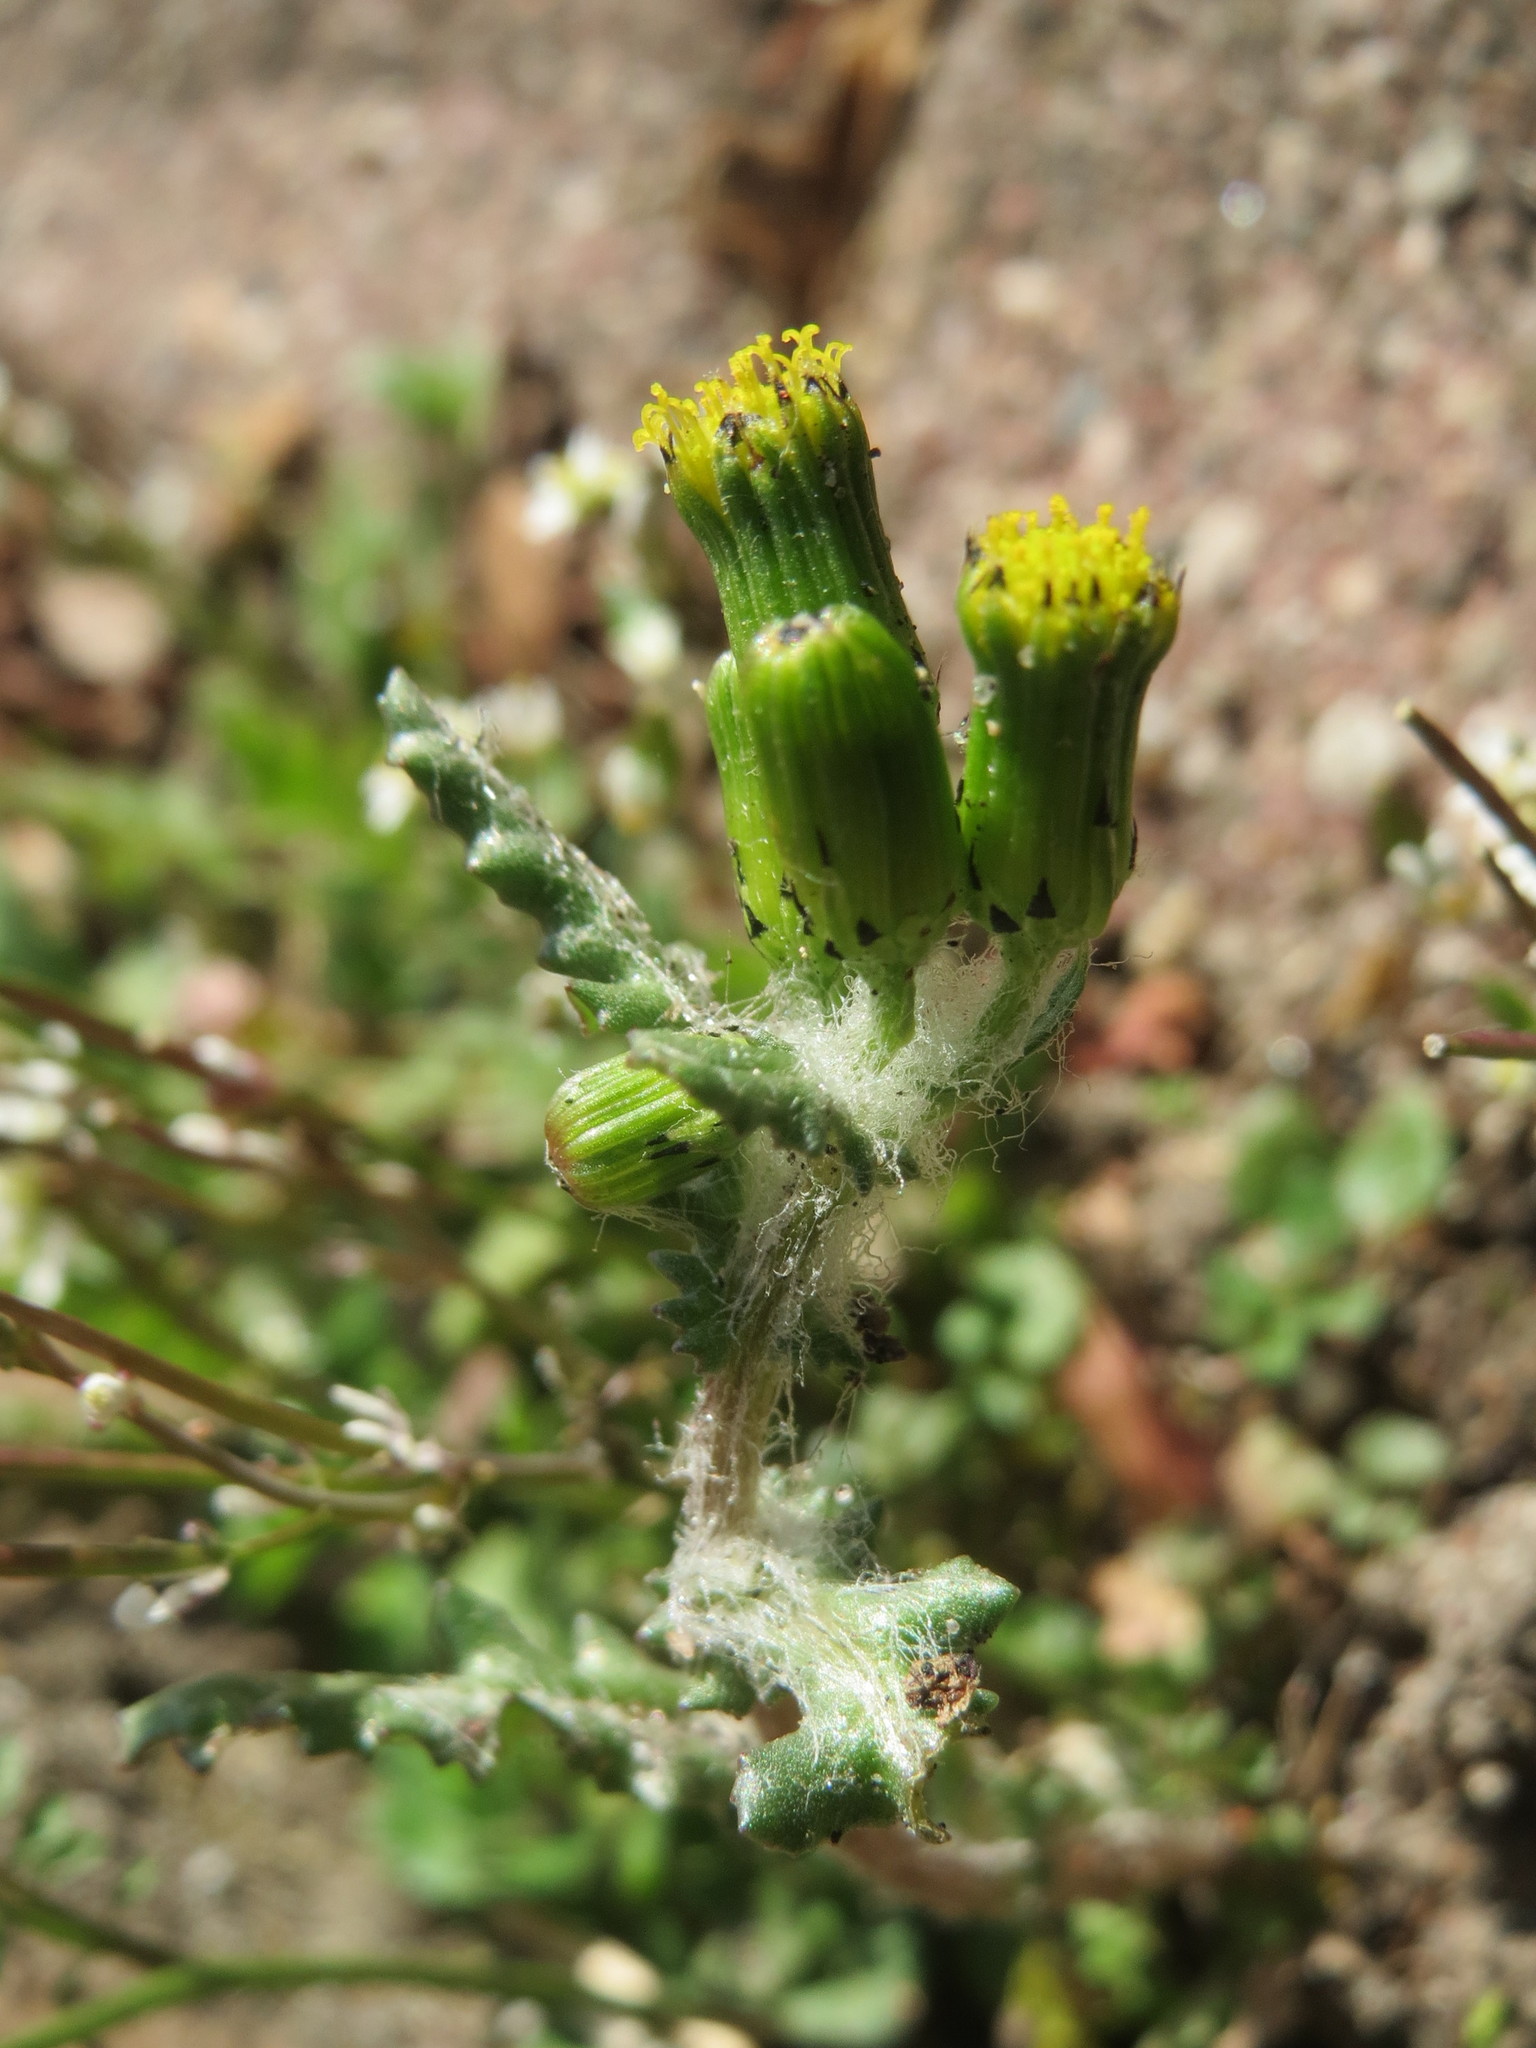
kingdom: Plantae
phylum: Tracheophyta
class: Magnoliopsida
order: Asterales
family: Asteraceae
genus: Senecio
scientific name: Senecio vulgaris
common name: Old-man-in-the-spring
